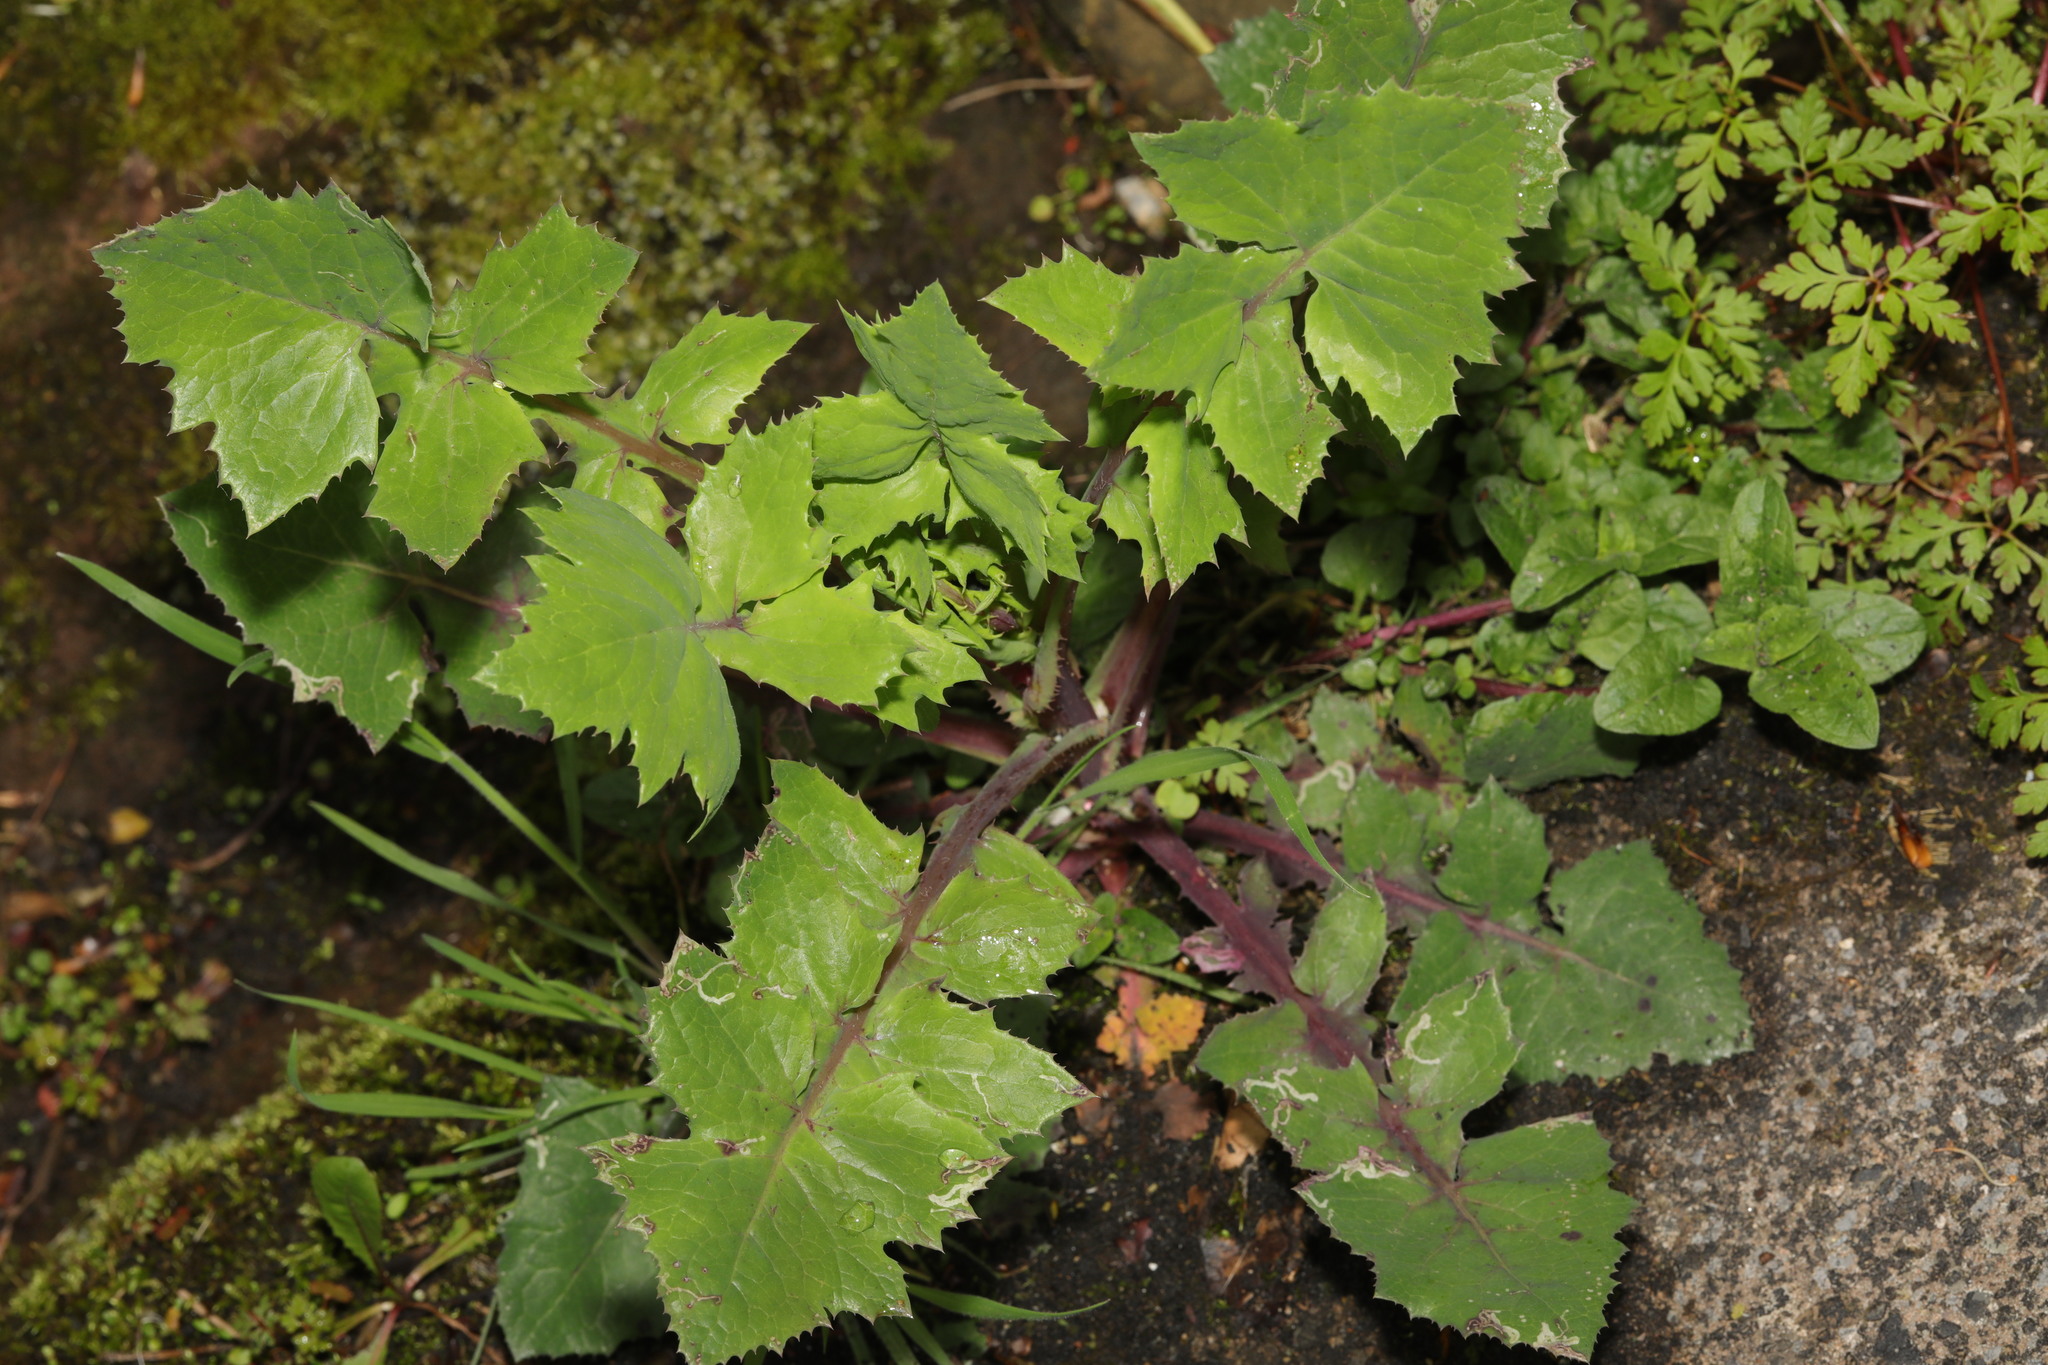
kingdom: Plantae
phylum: Tracheophyta
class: Magnoliopsida
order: Asterales
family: Asteraceae
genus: Sonchus
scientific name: Sonchus oleraceus
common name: Common sowthistle
